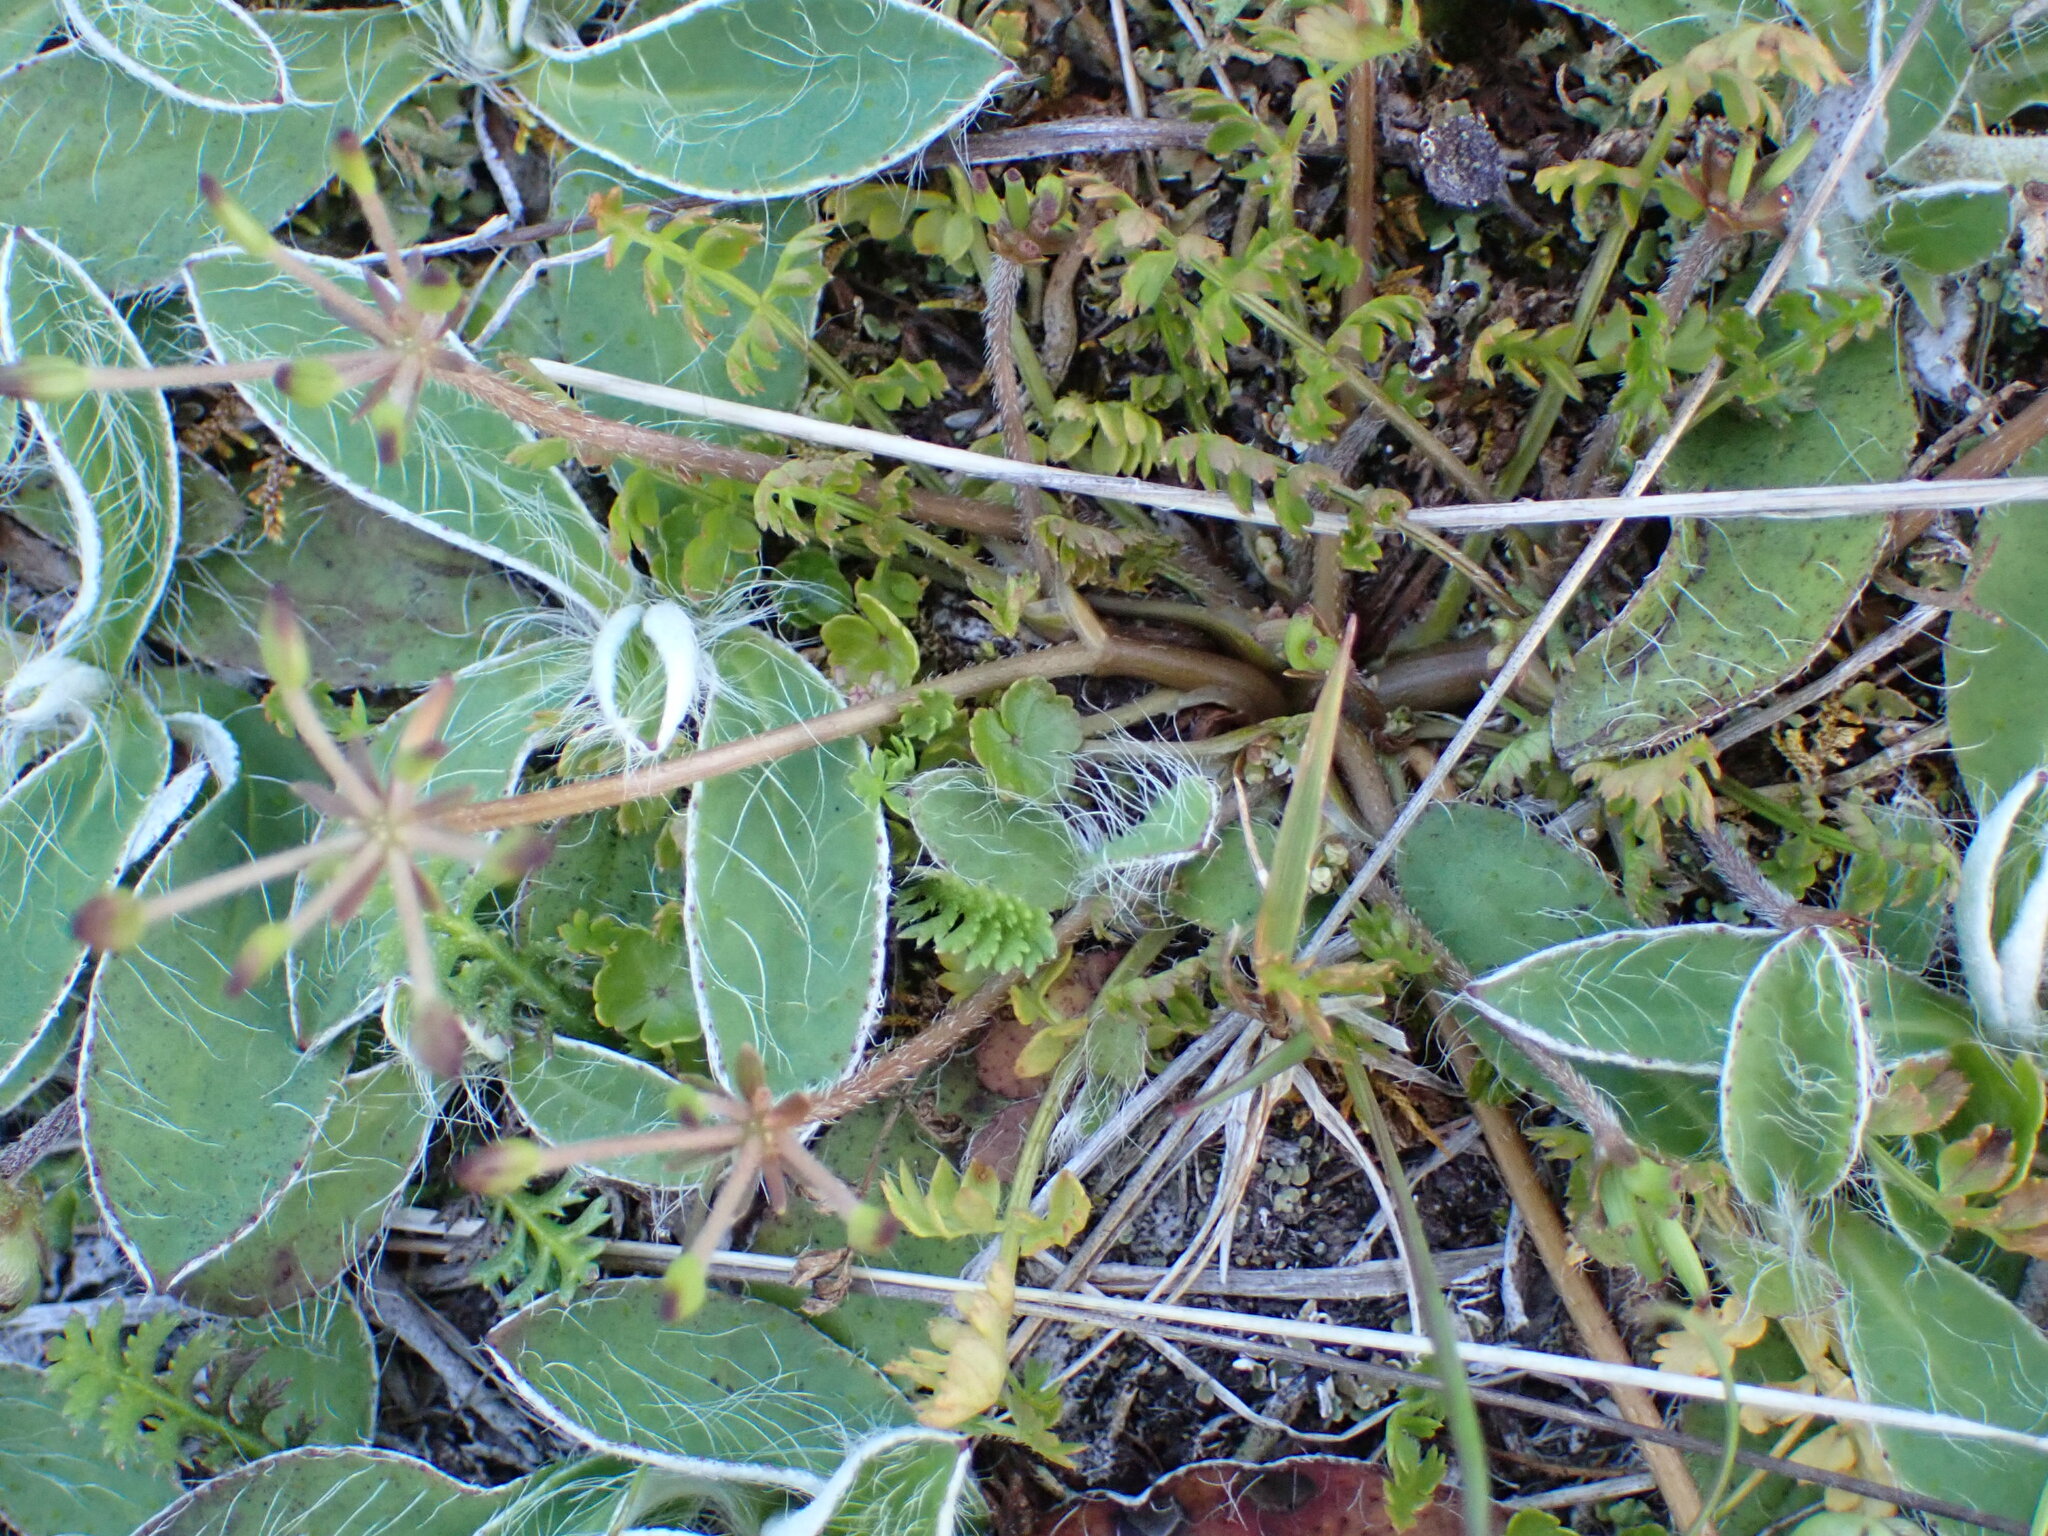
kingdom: Plantae
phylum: Tracheophyta
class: Magnoliopsida
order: Asterales
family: Asteraceae
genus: Pilosella
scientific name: Pilosella officinarum
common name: Mouse-ear hawkweed
